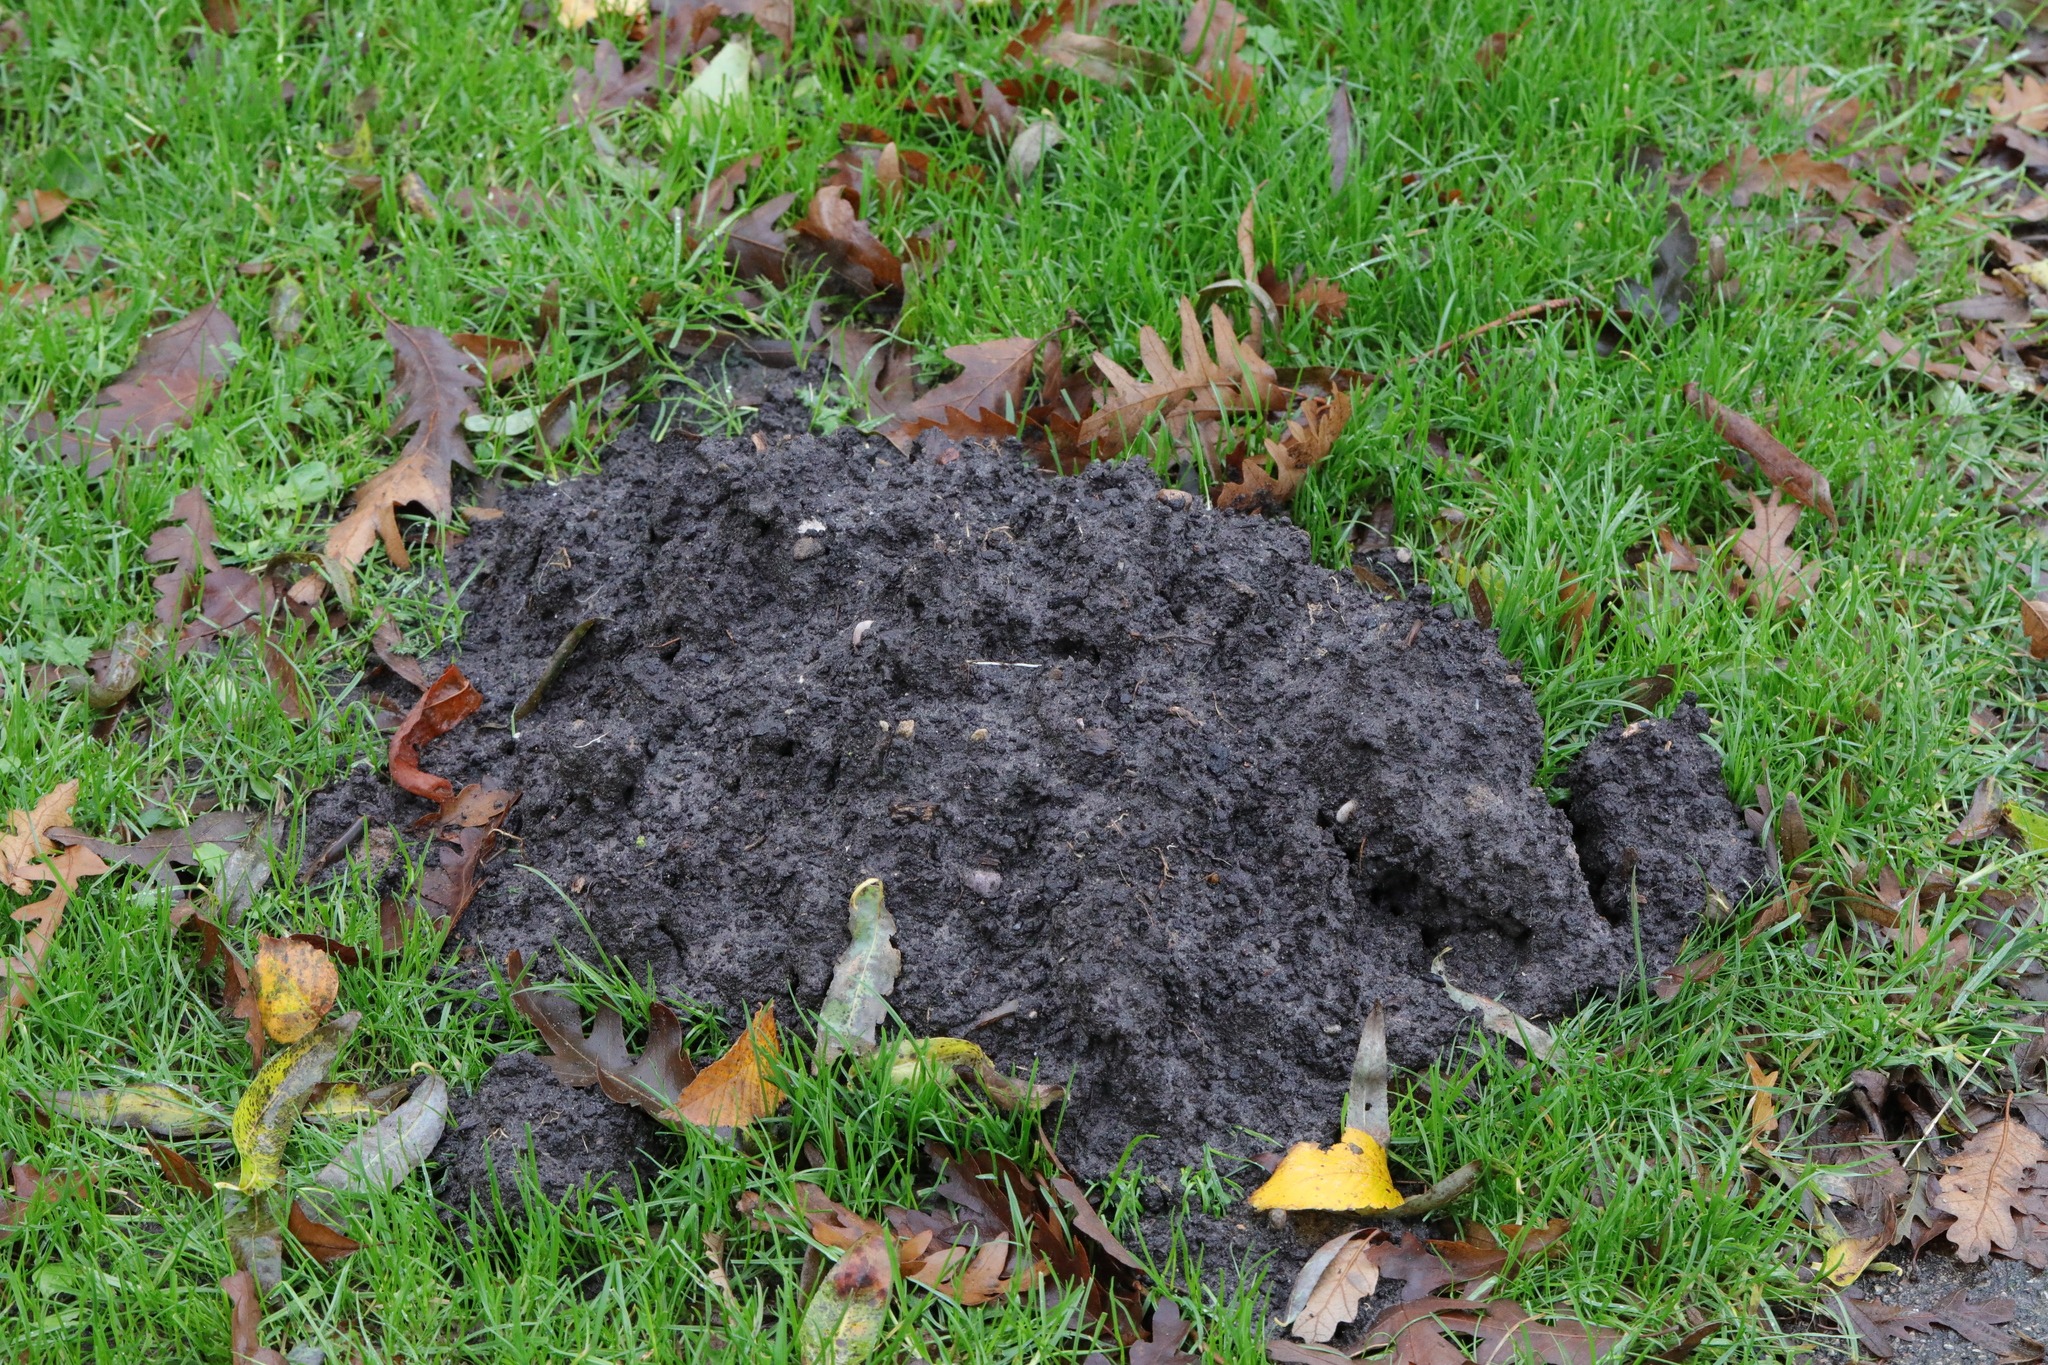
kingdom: Animalia
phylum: Chordata
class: Mammalia
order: Soricomorpha
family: Talpidae
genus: Talpa
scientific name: Talpa europaea
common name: European mole
